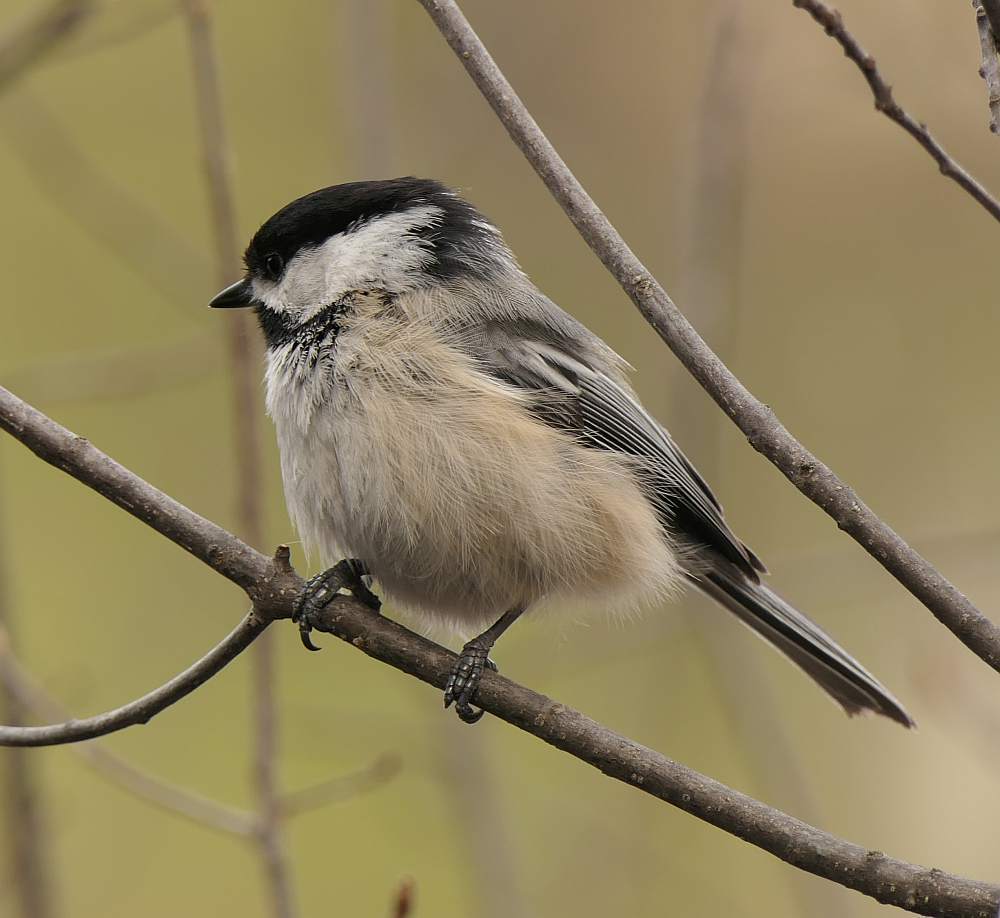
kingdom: Animalia
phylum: Chordata
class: Aves
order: Passeriformes
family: Paridae
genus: Poecile
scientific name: Poecile atricapillus
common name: Black-capped chickadee
